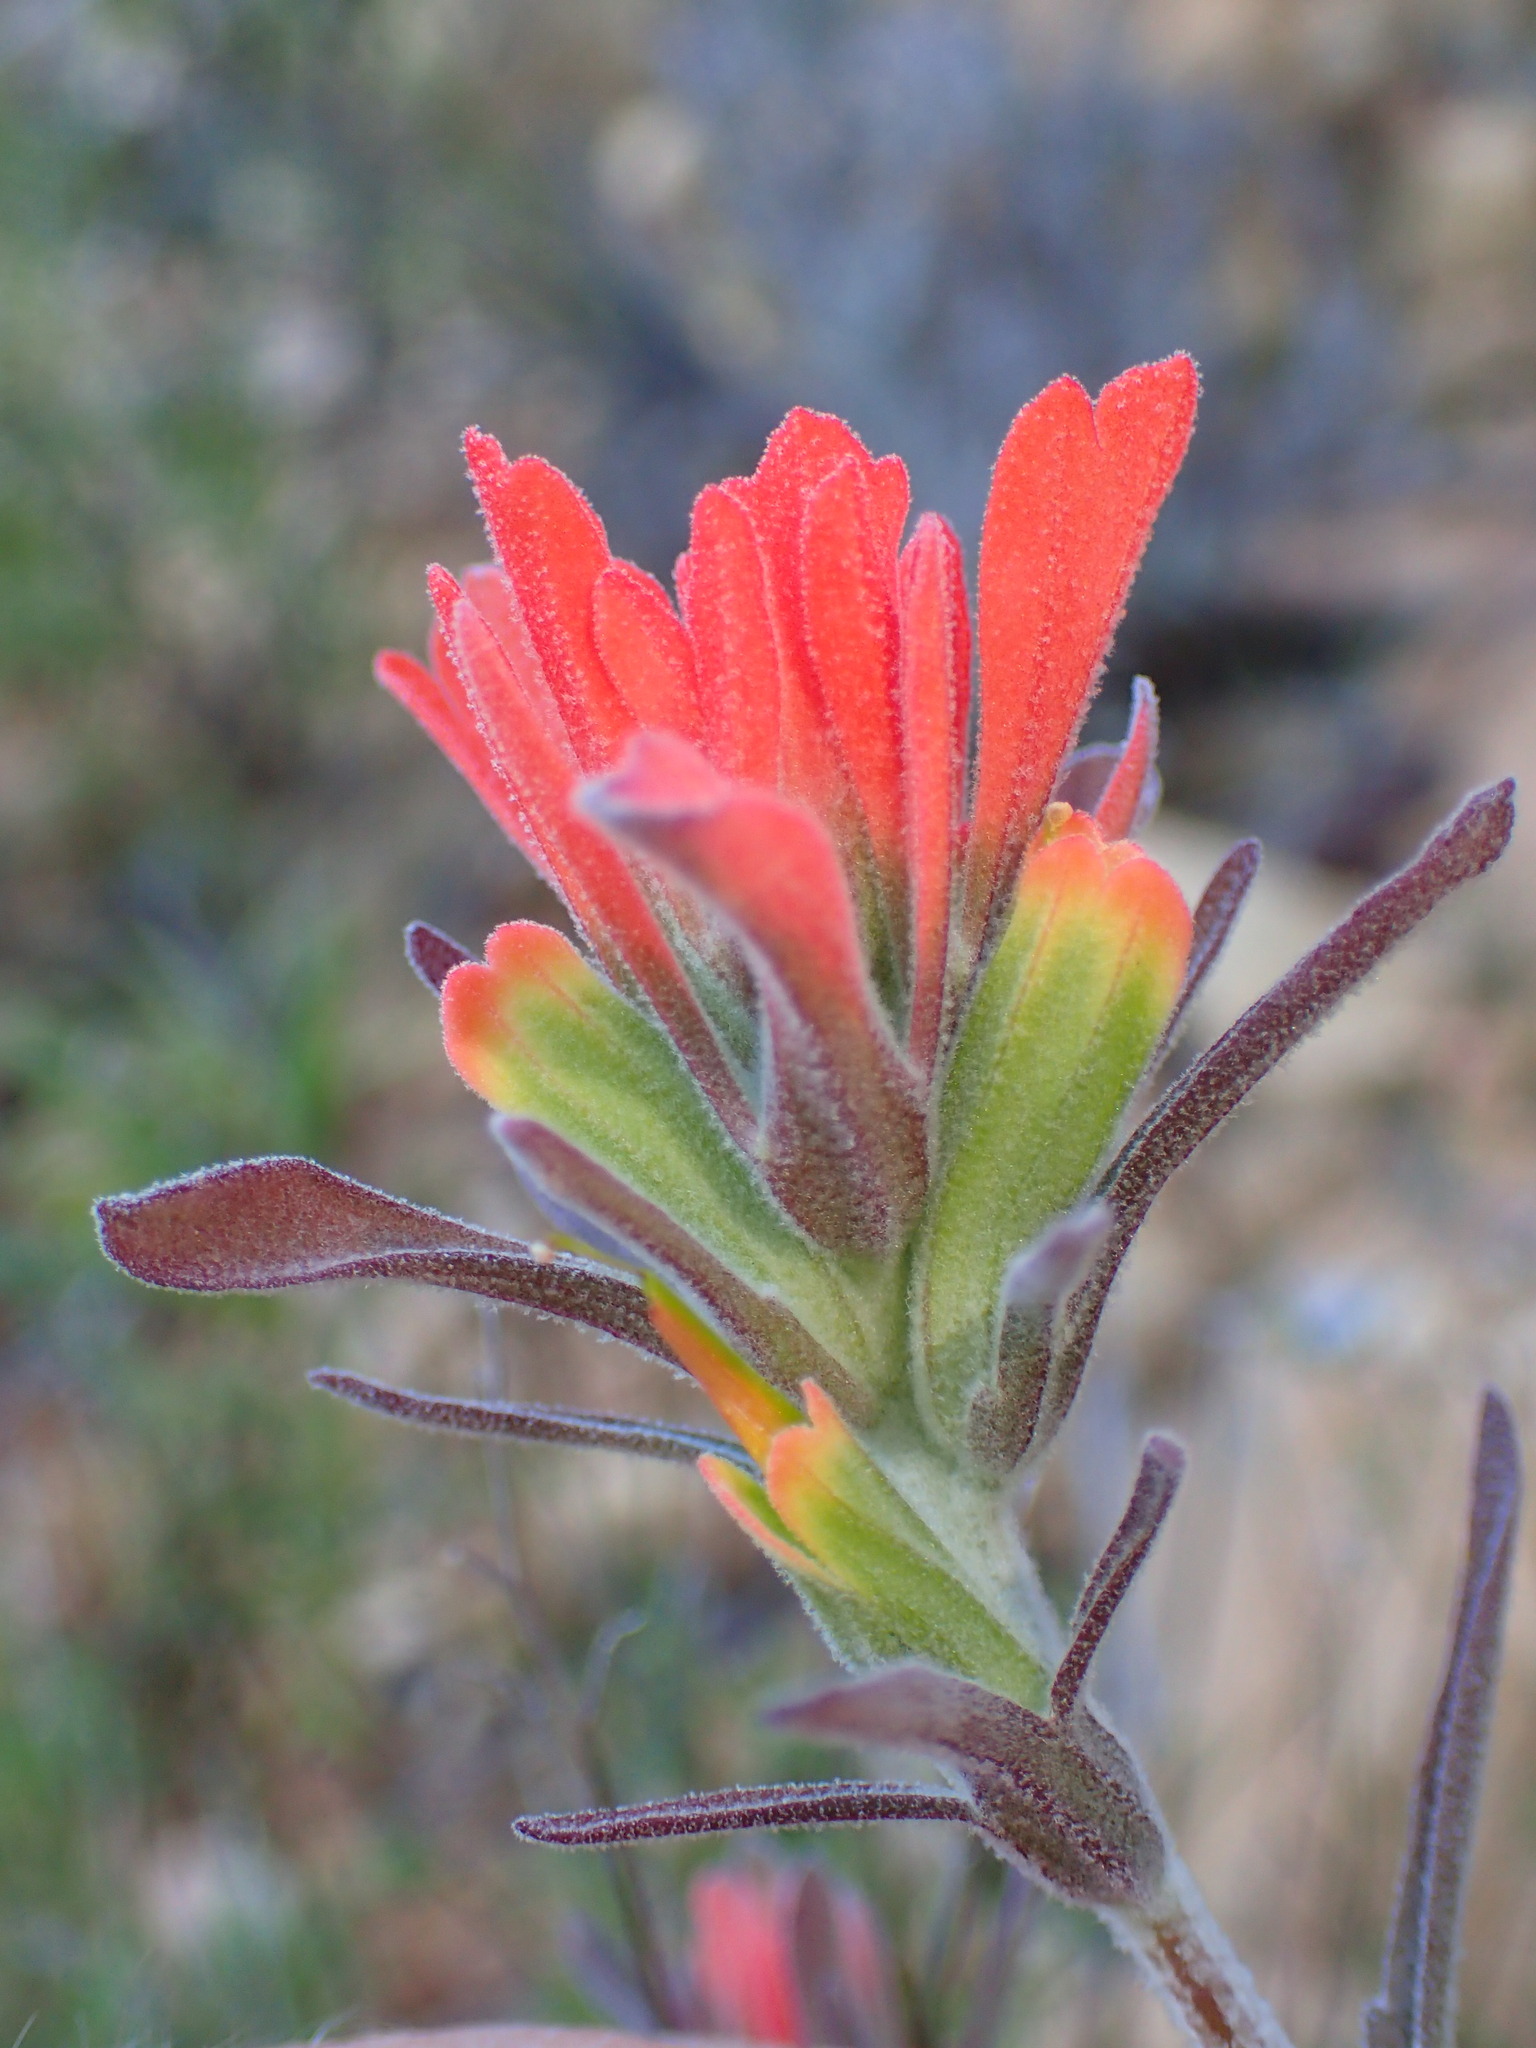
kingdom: Plantae
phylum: Tracheophyta
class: Magnoliopsida
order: Lamiales
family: Orobanchaceae
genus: Castilleja
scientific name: Castilleja foliolosa
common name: Woolly indian paintbrush
